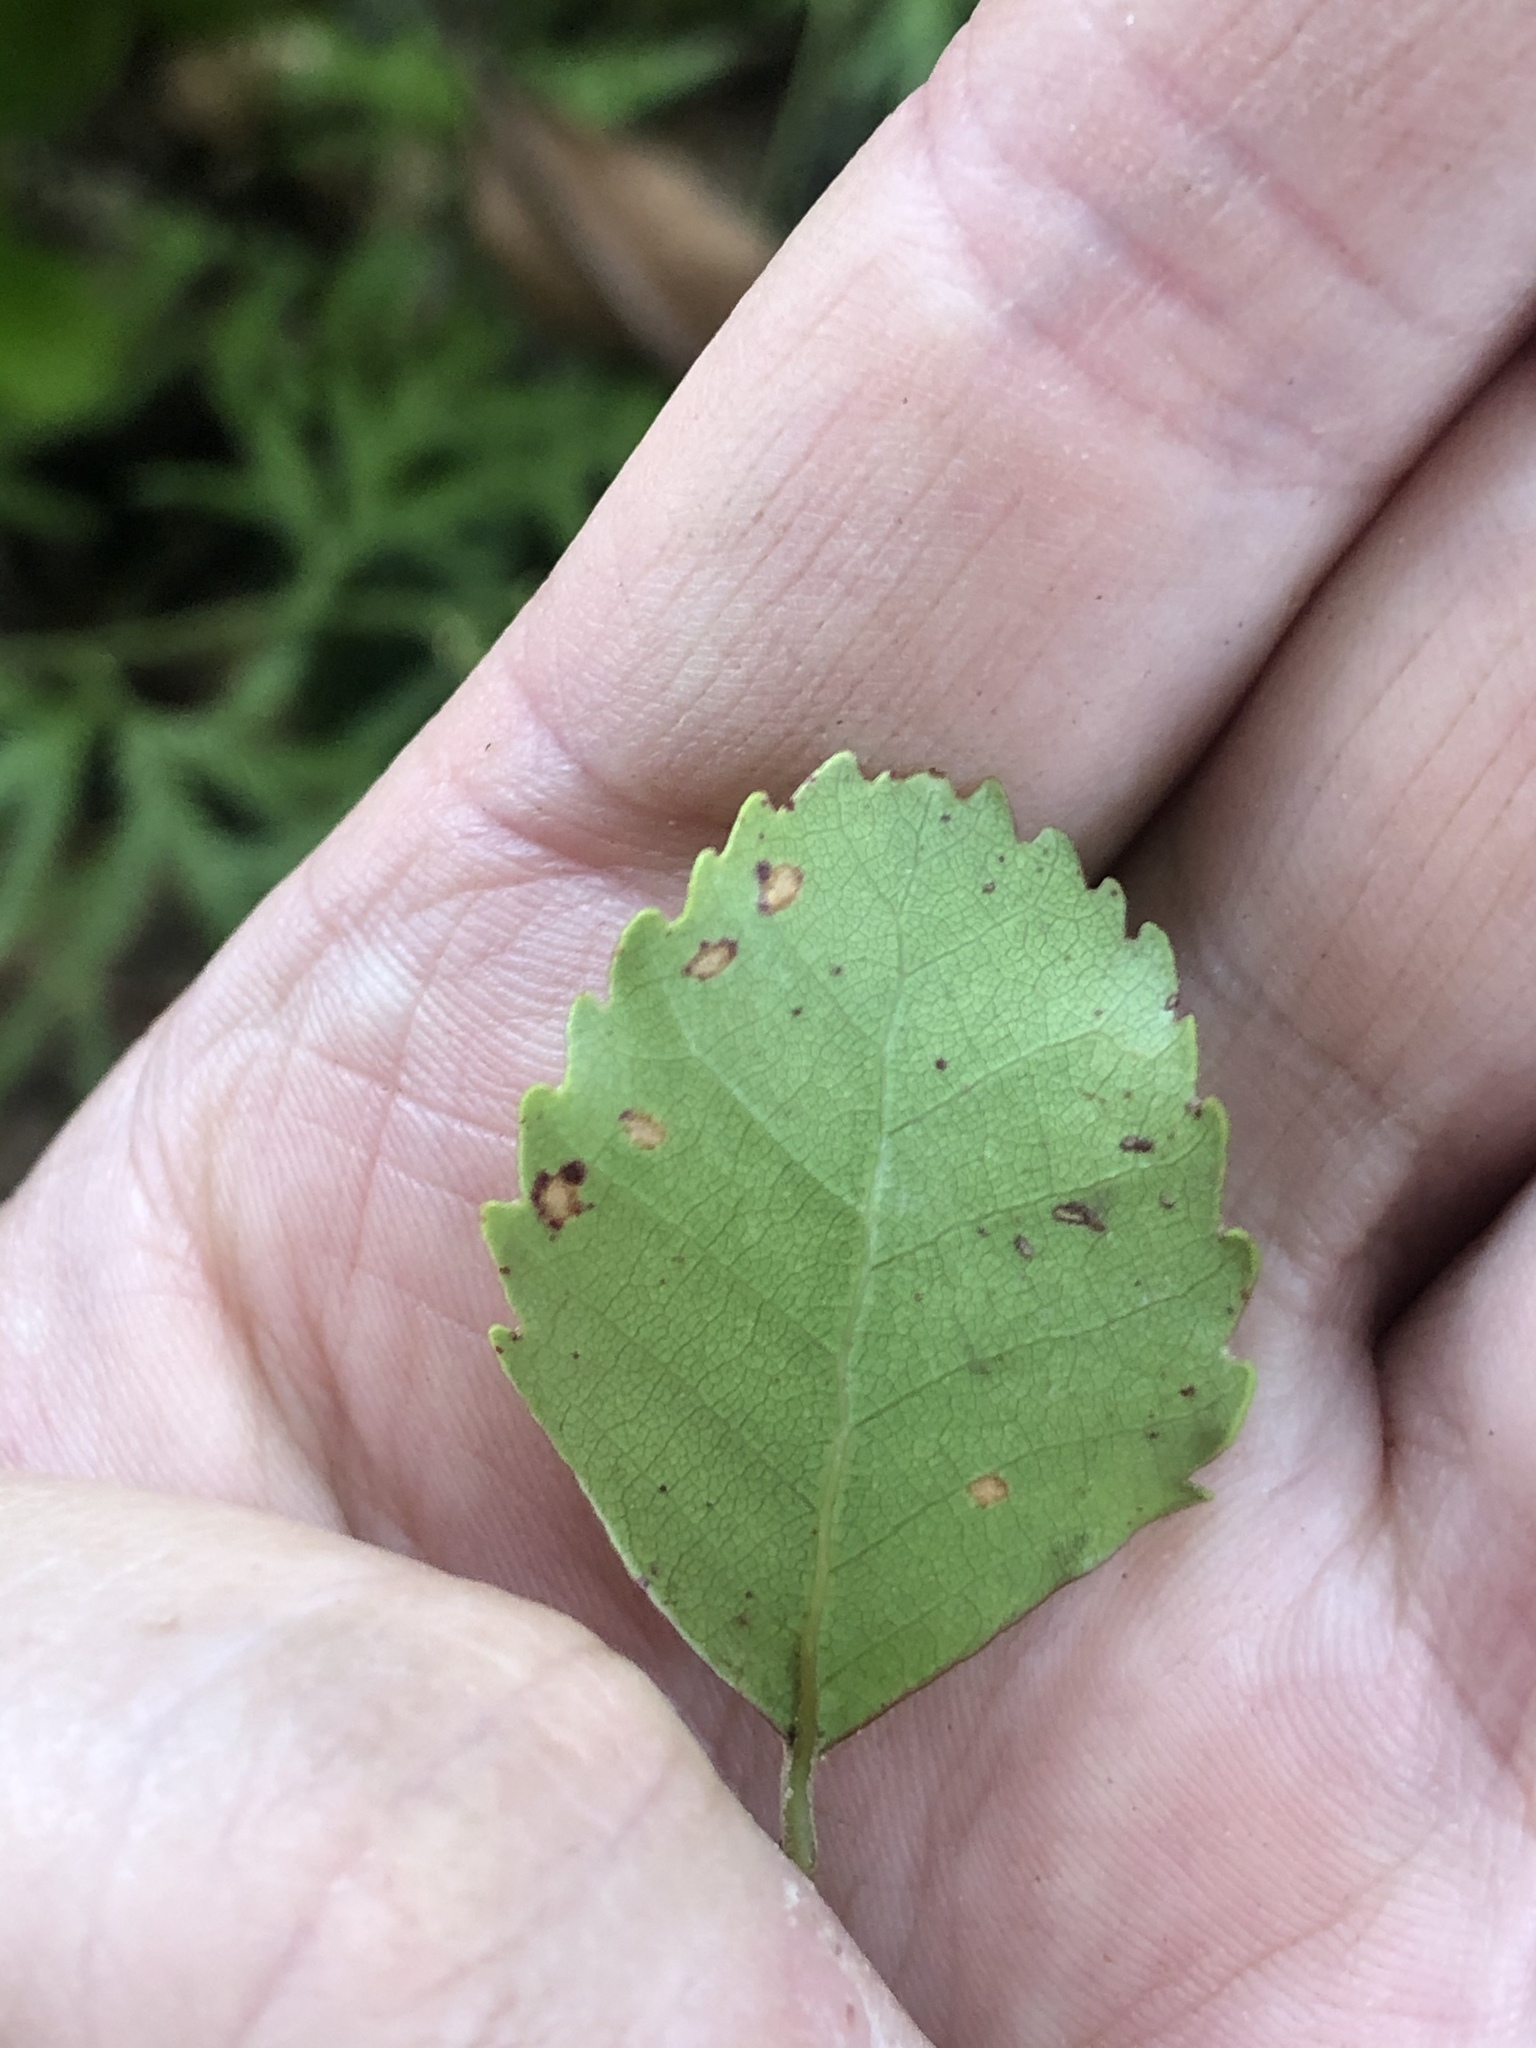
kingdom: Plantae
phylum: Tracheophyta
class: Magnoliopsida
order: Fagales
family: Nothofagaceae
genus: Nothofagus
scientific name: Nothofagus truncata
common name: Hard beech
